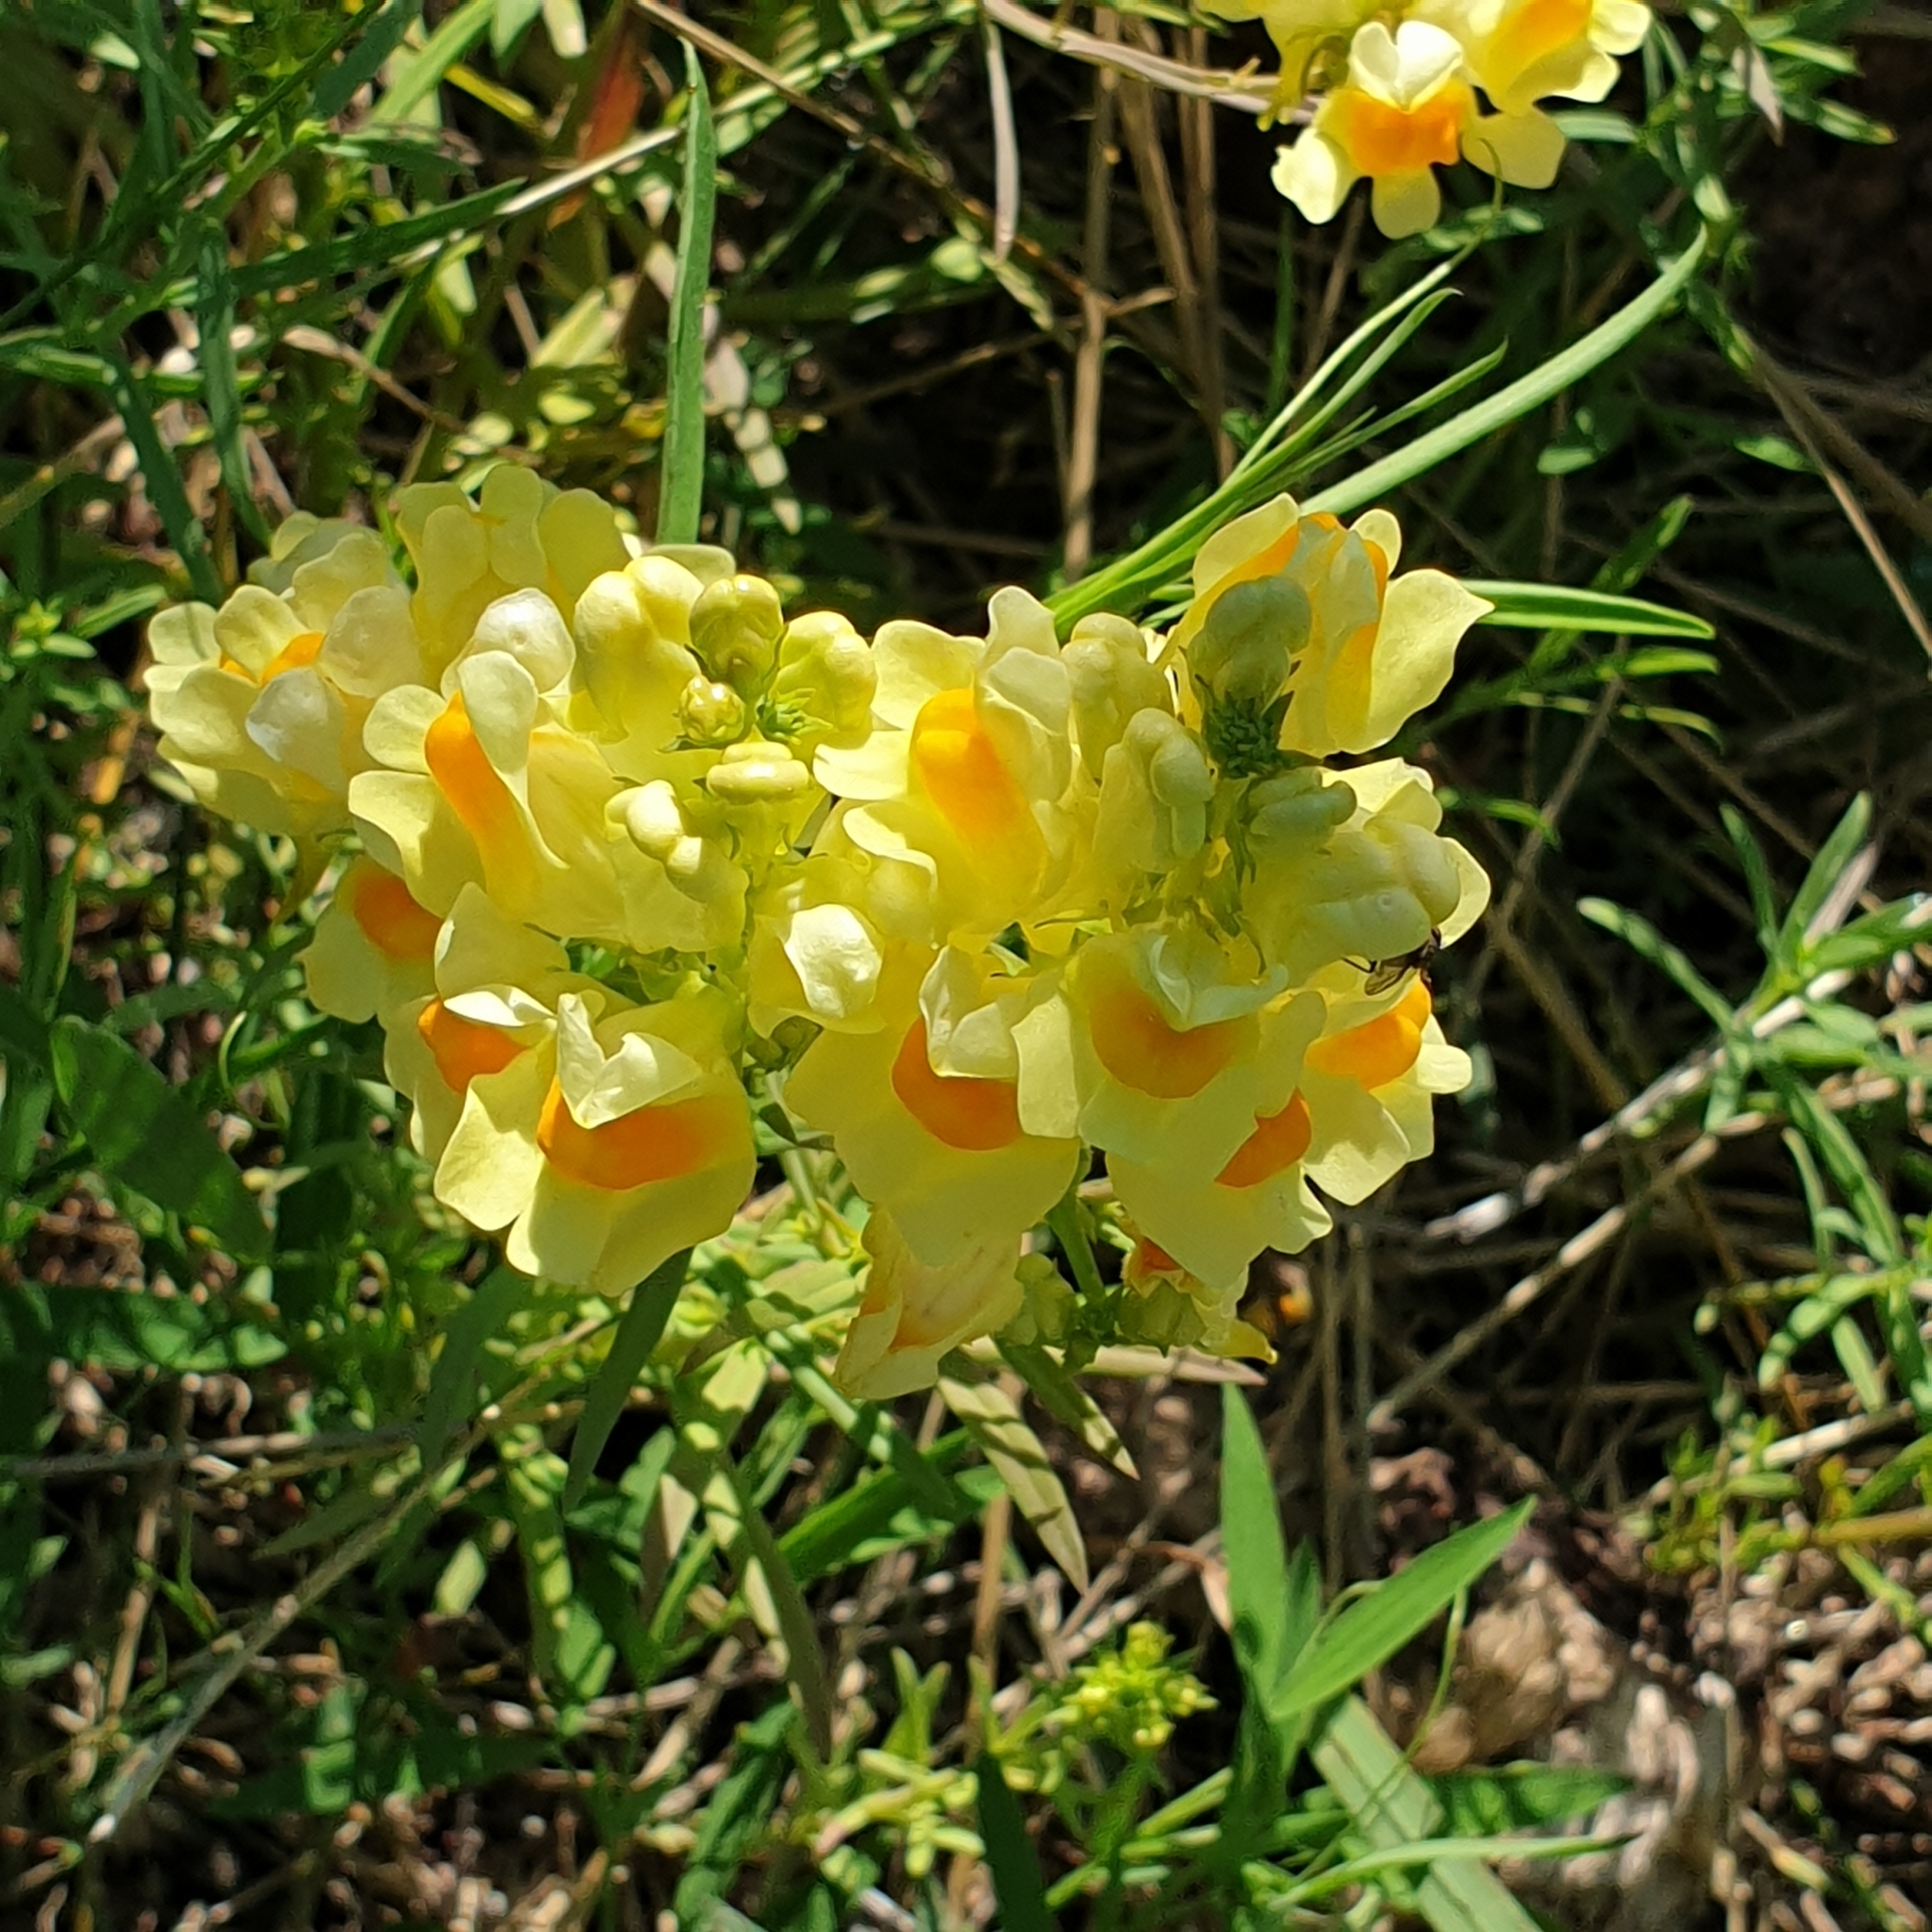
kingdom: Plantae
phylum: Tracheophyta
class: Magnoliopsida
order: Lamiales
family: Plantaginaceae
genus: Linaria
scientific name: Linaria vulgaris
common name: Butter and eggs
